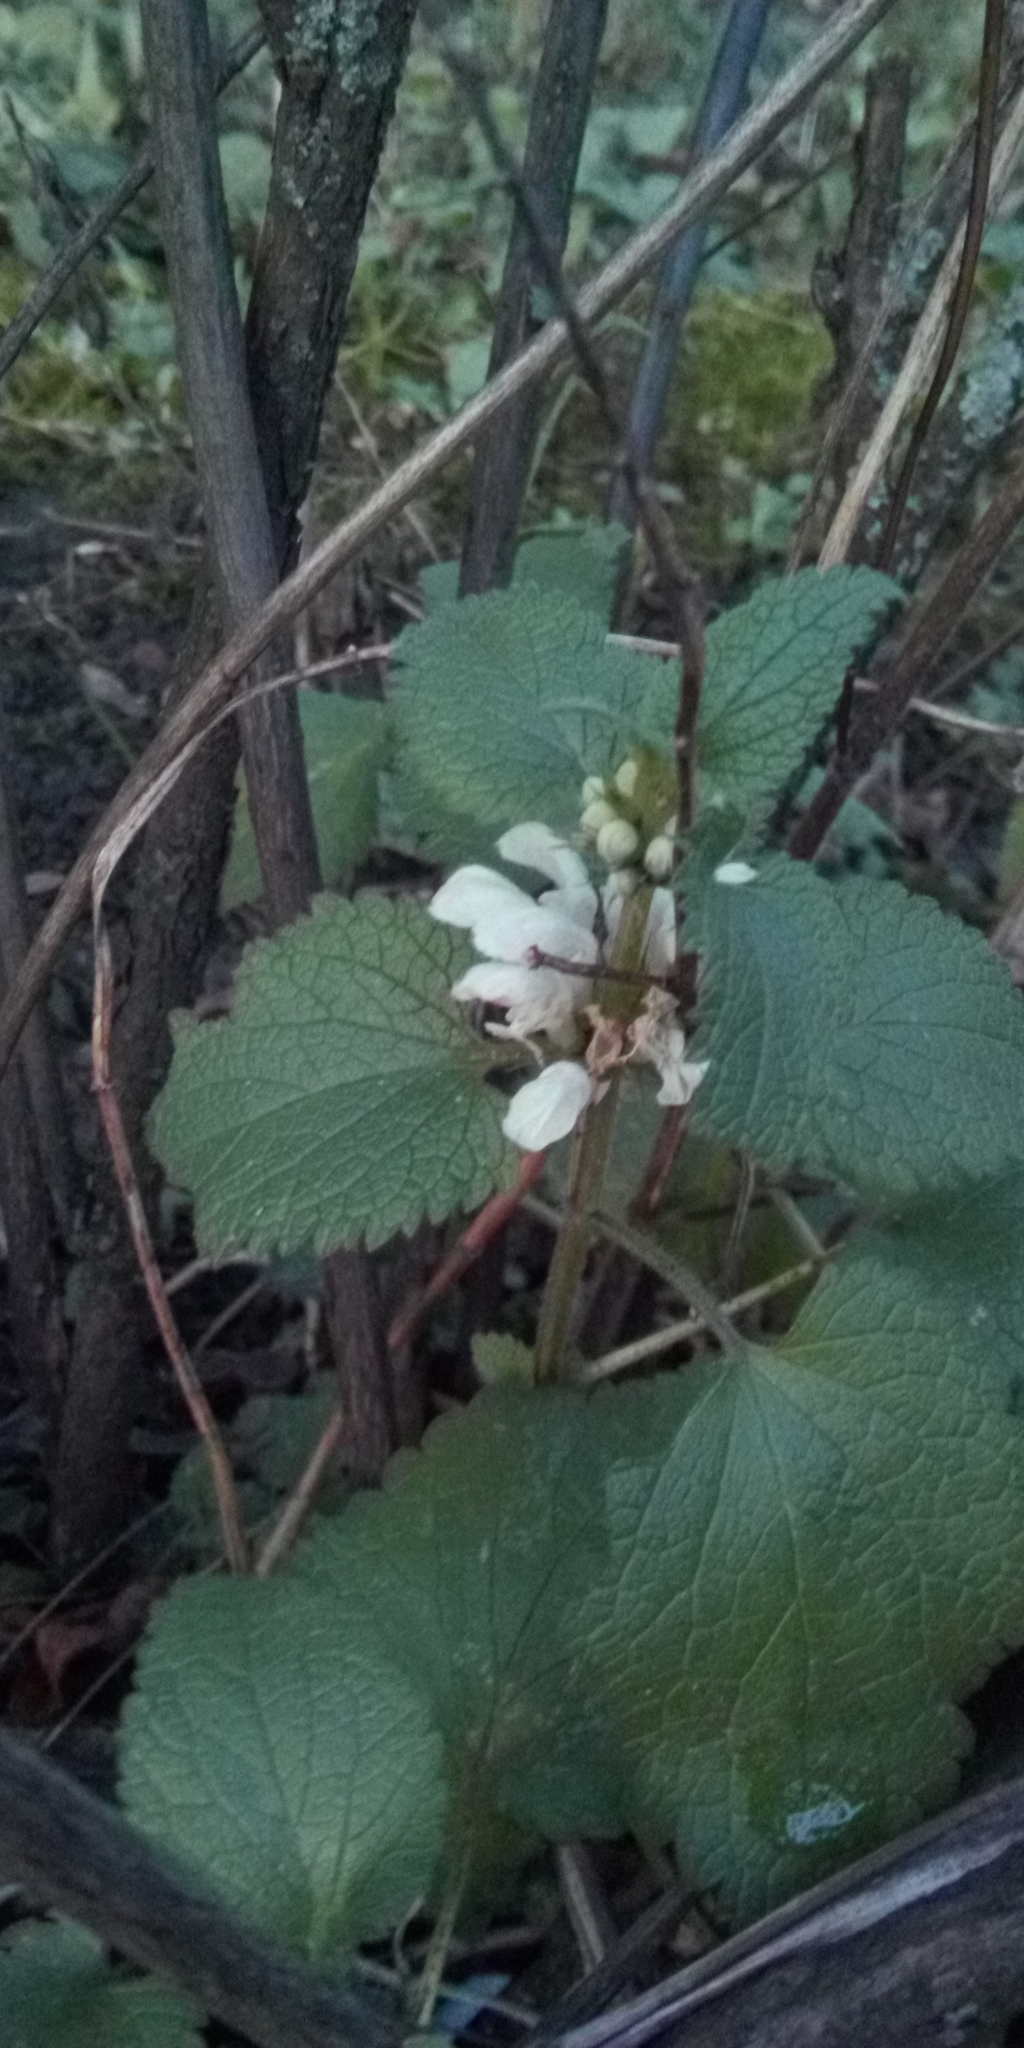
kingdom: Plantae
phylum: Tracheophyta
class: Magnoliopsida
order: Lamiales
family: Lamiaceae
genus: Lamium
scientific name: Lamium album
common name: White dead-nettle
